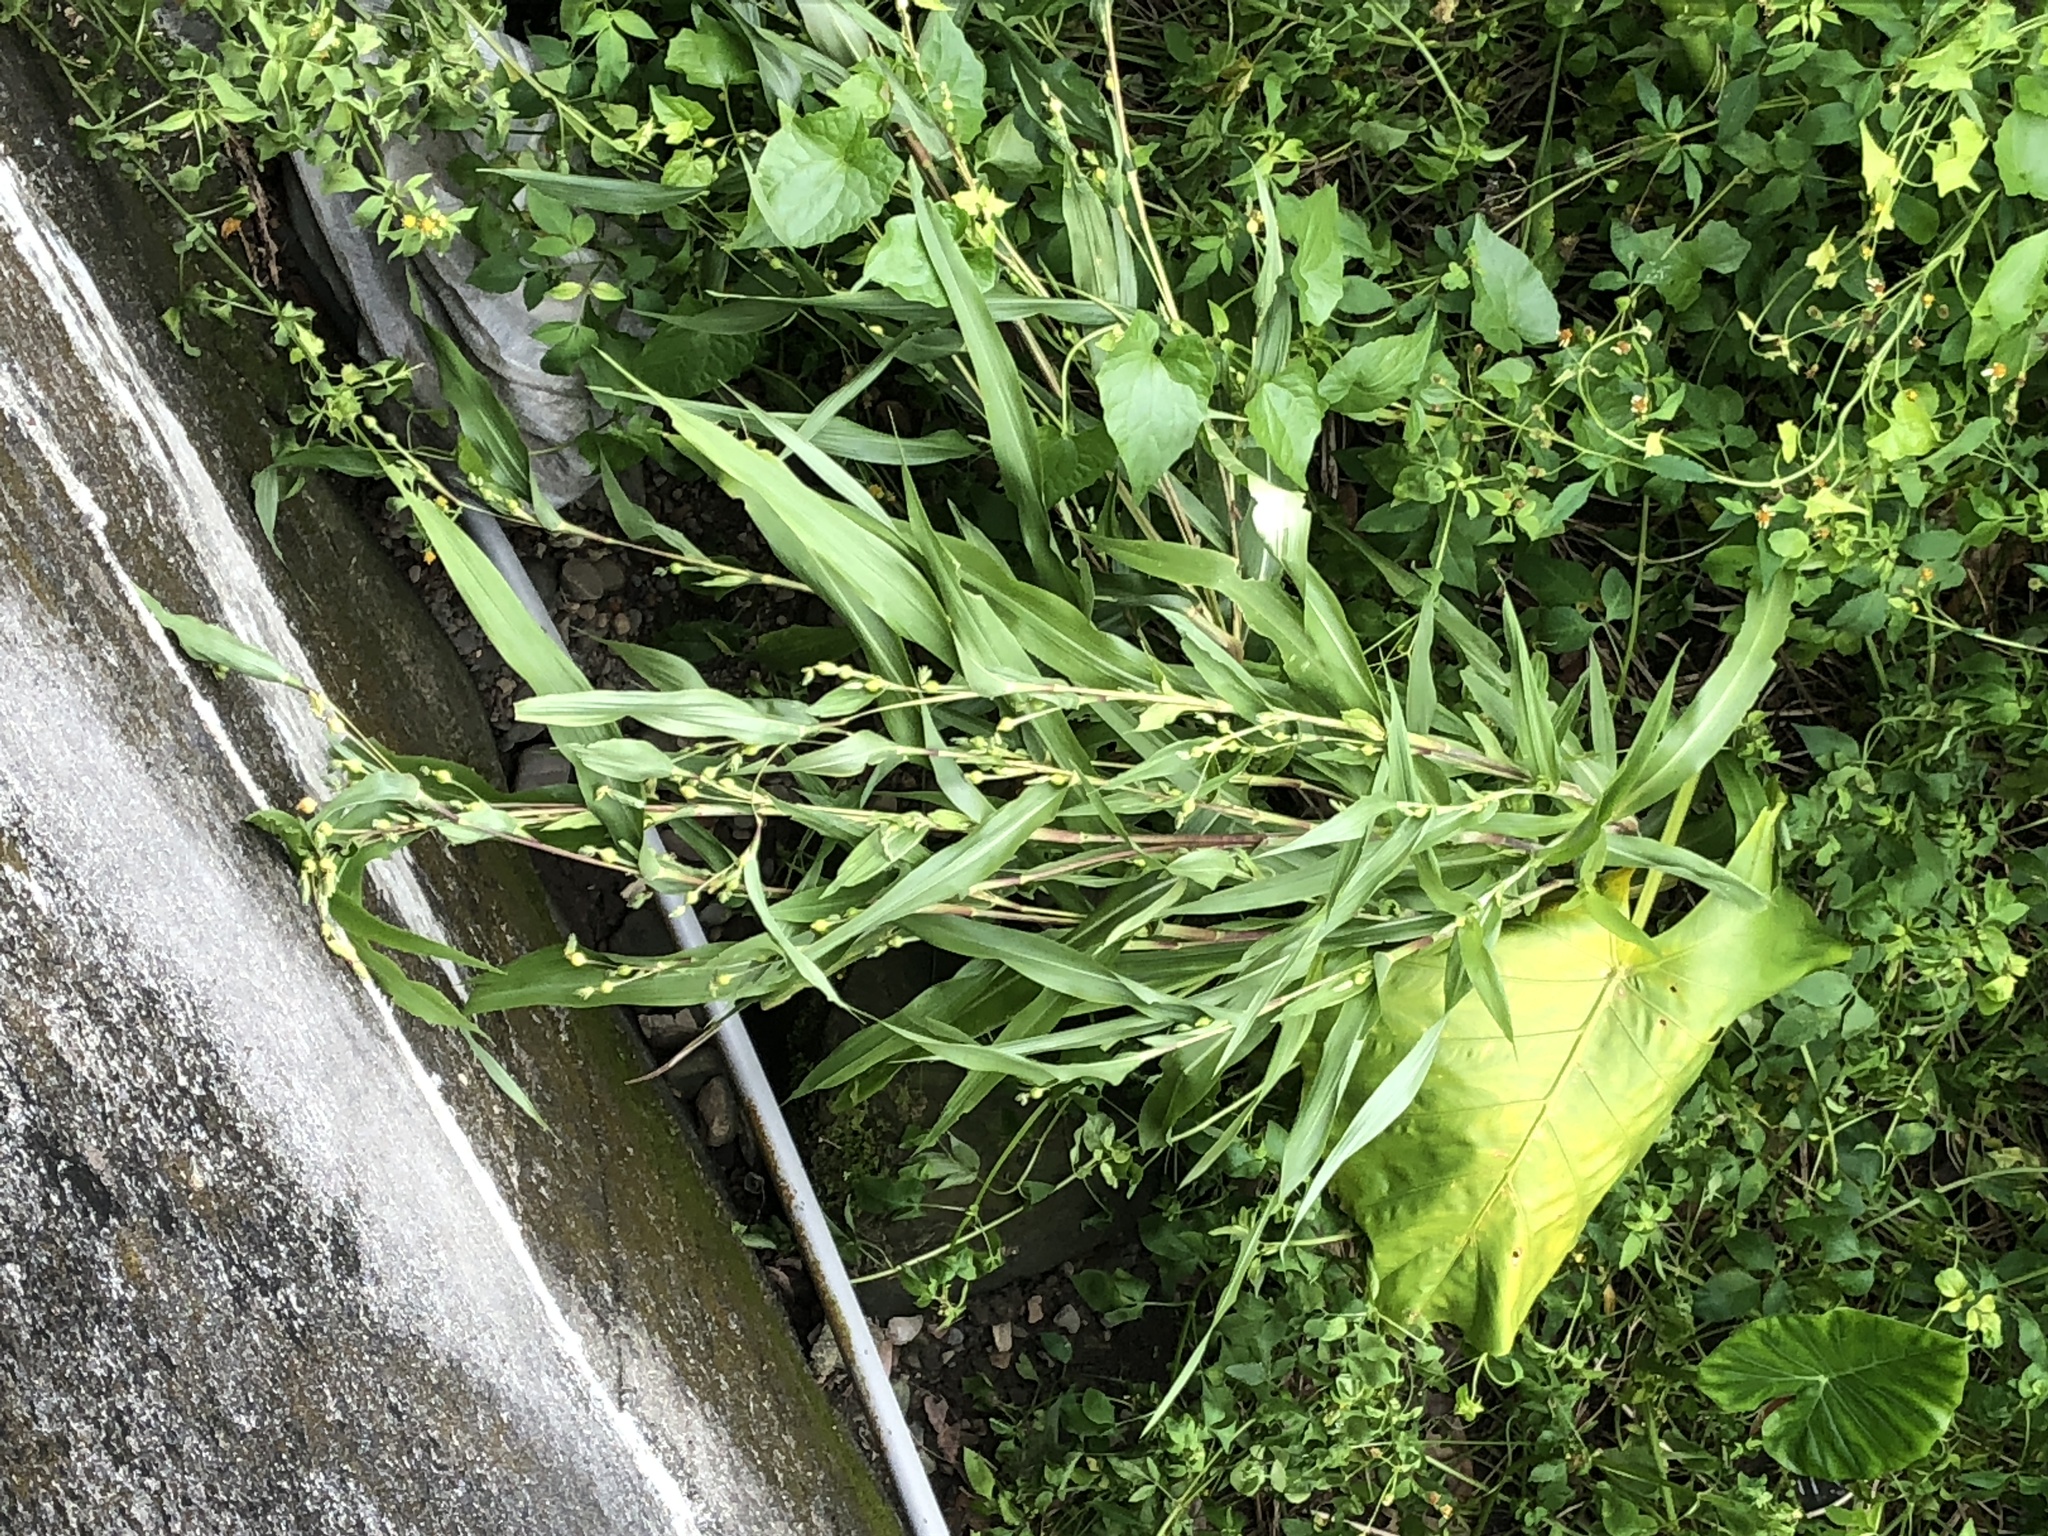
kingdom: Plantae
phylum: Tracheophyta
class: Liliopsida
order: Poales
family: Poaceae
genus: Coix
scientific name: Coix lacryma-jobi
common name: Job's tears
